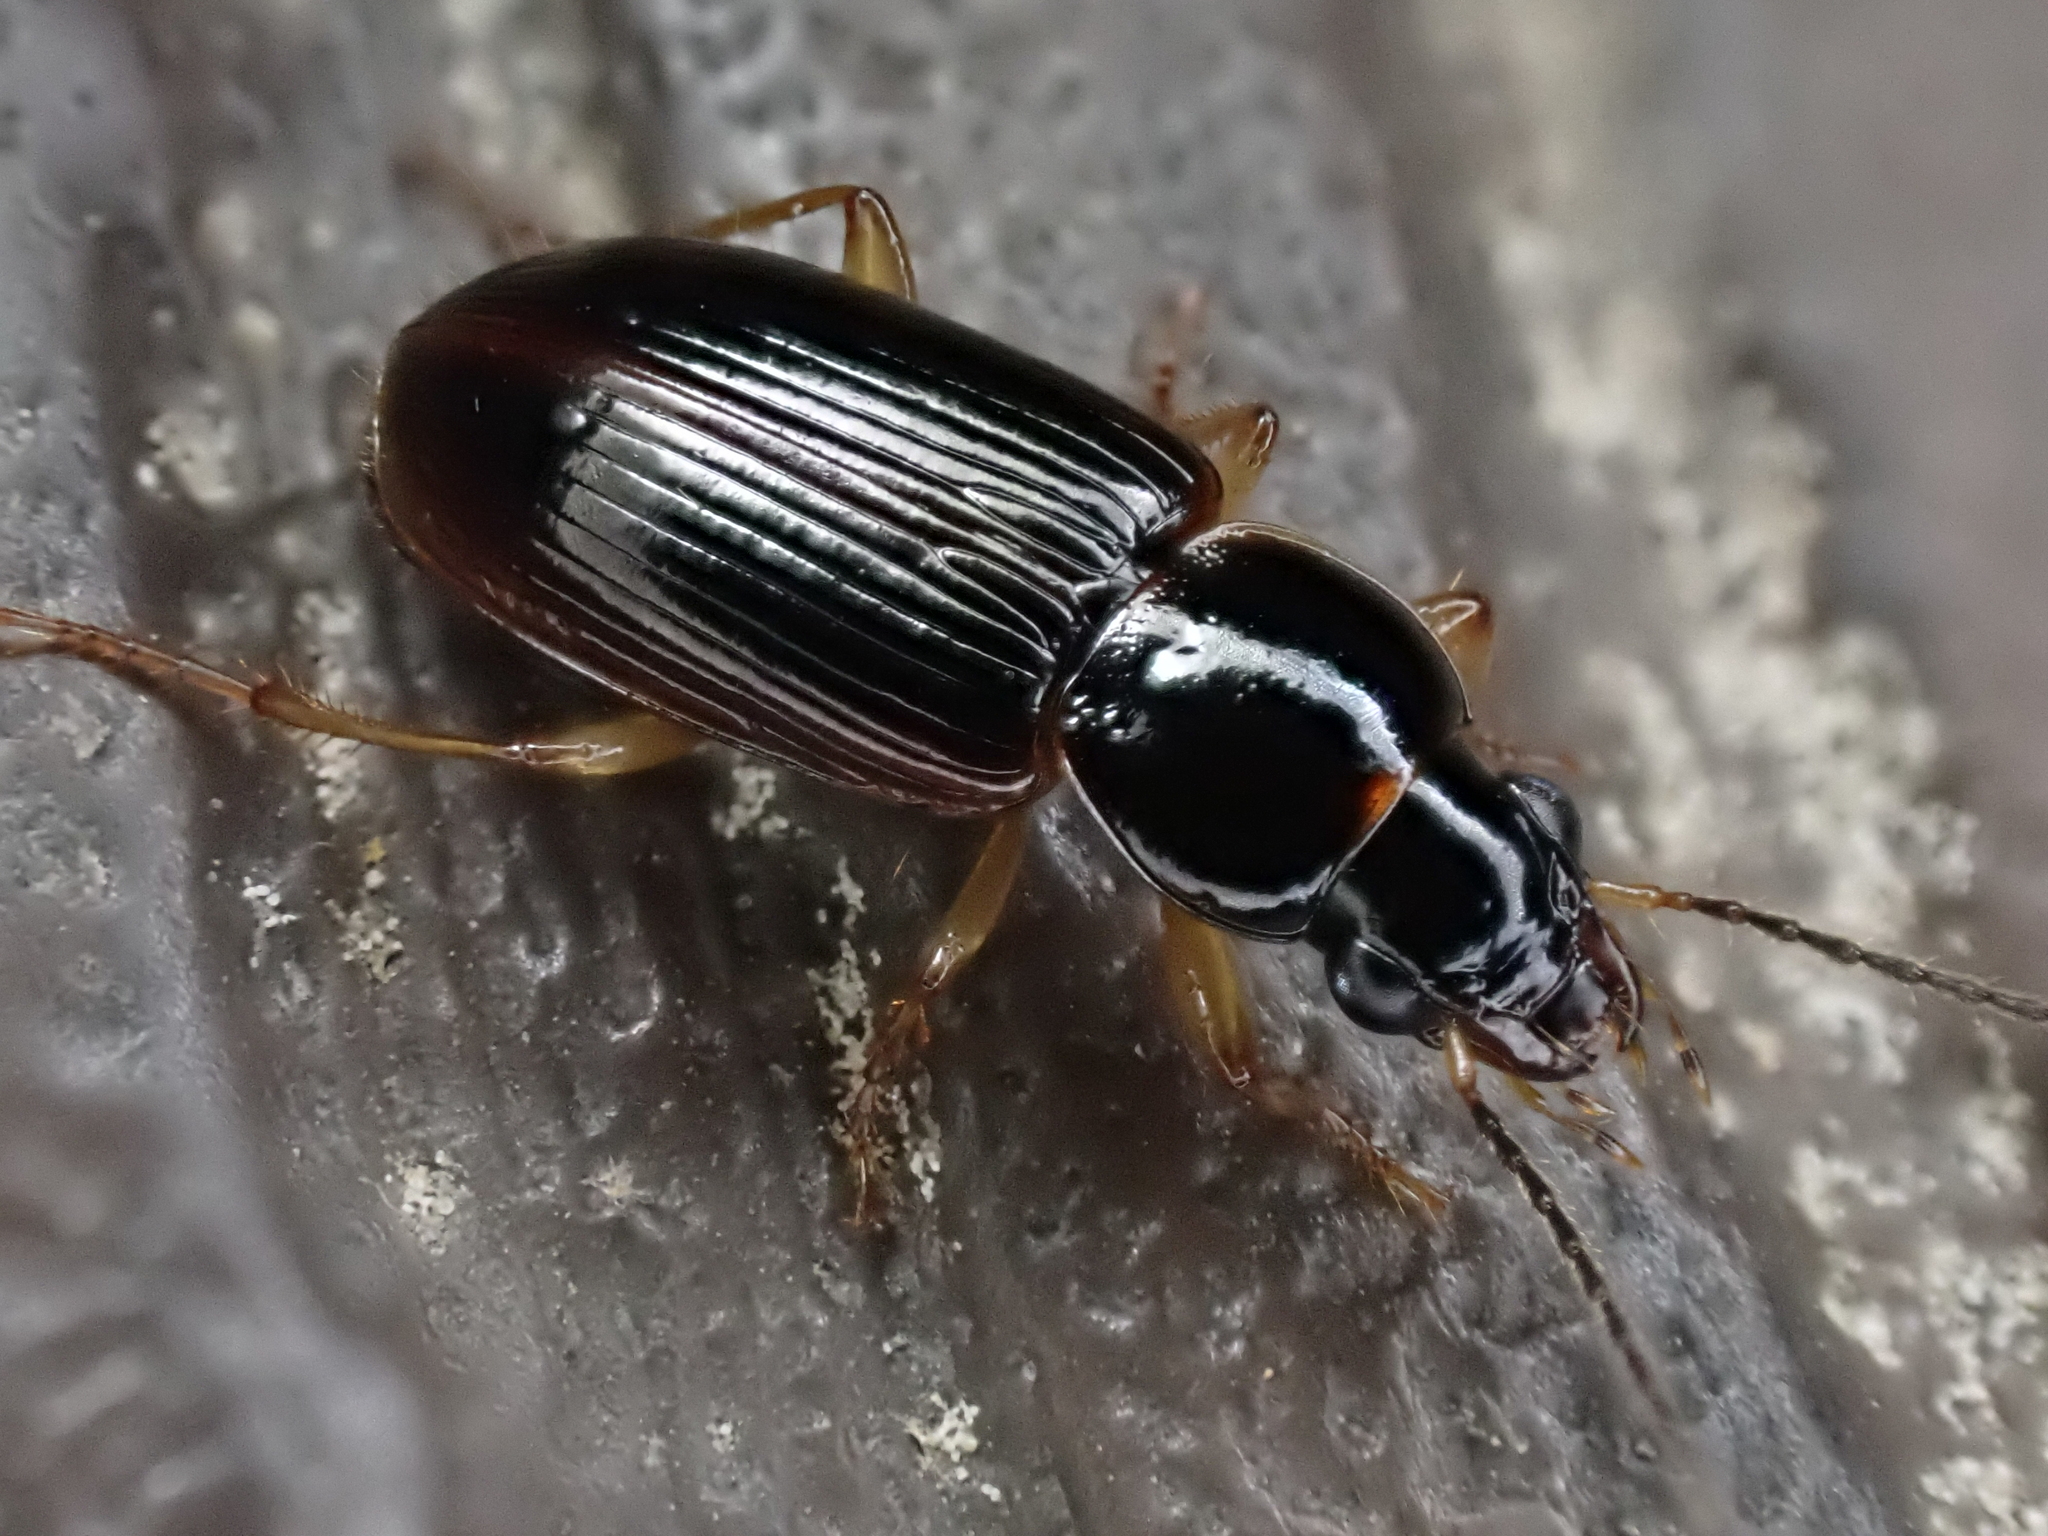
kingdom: Animalia
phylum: Arthropoda
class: Insecta
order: Coleoptera
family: Carabidae
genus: Stenolophus
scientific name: Stenolophus ochropezus
